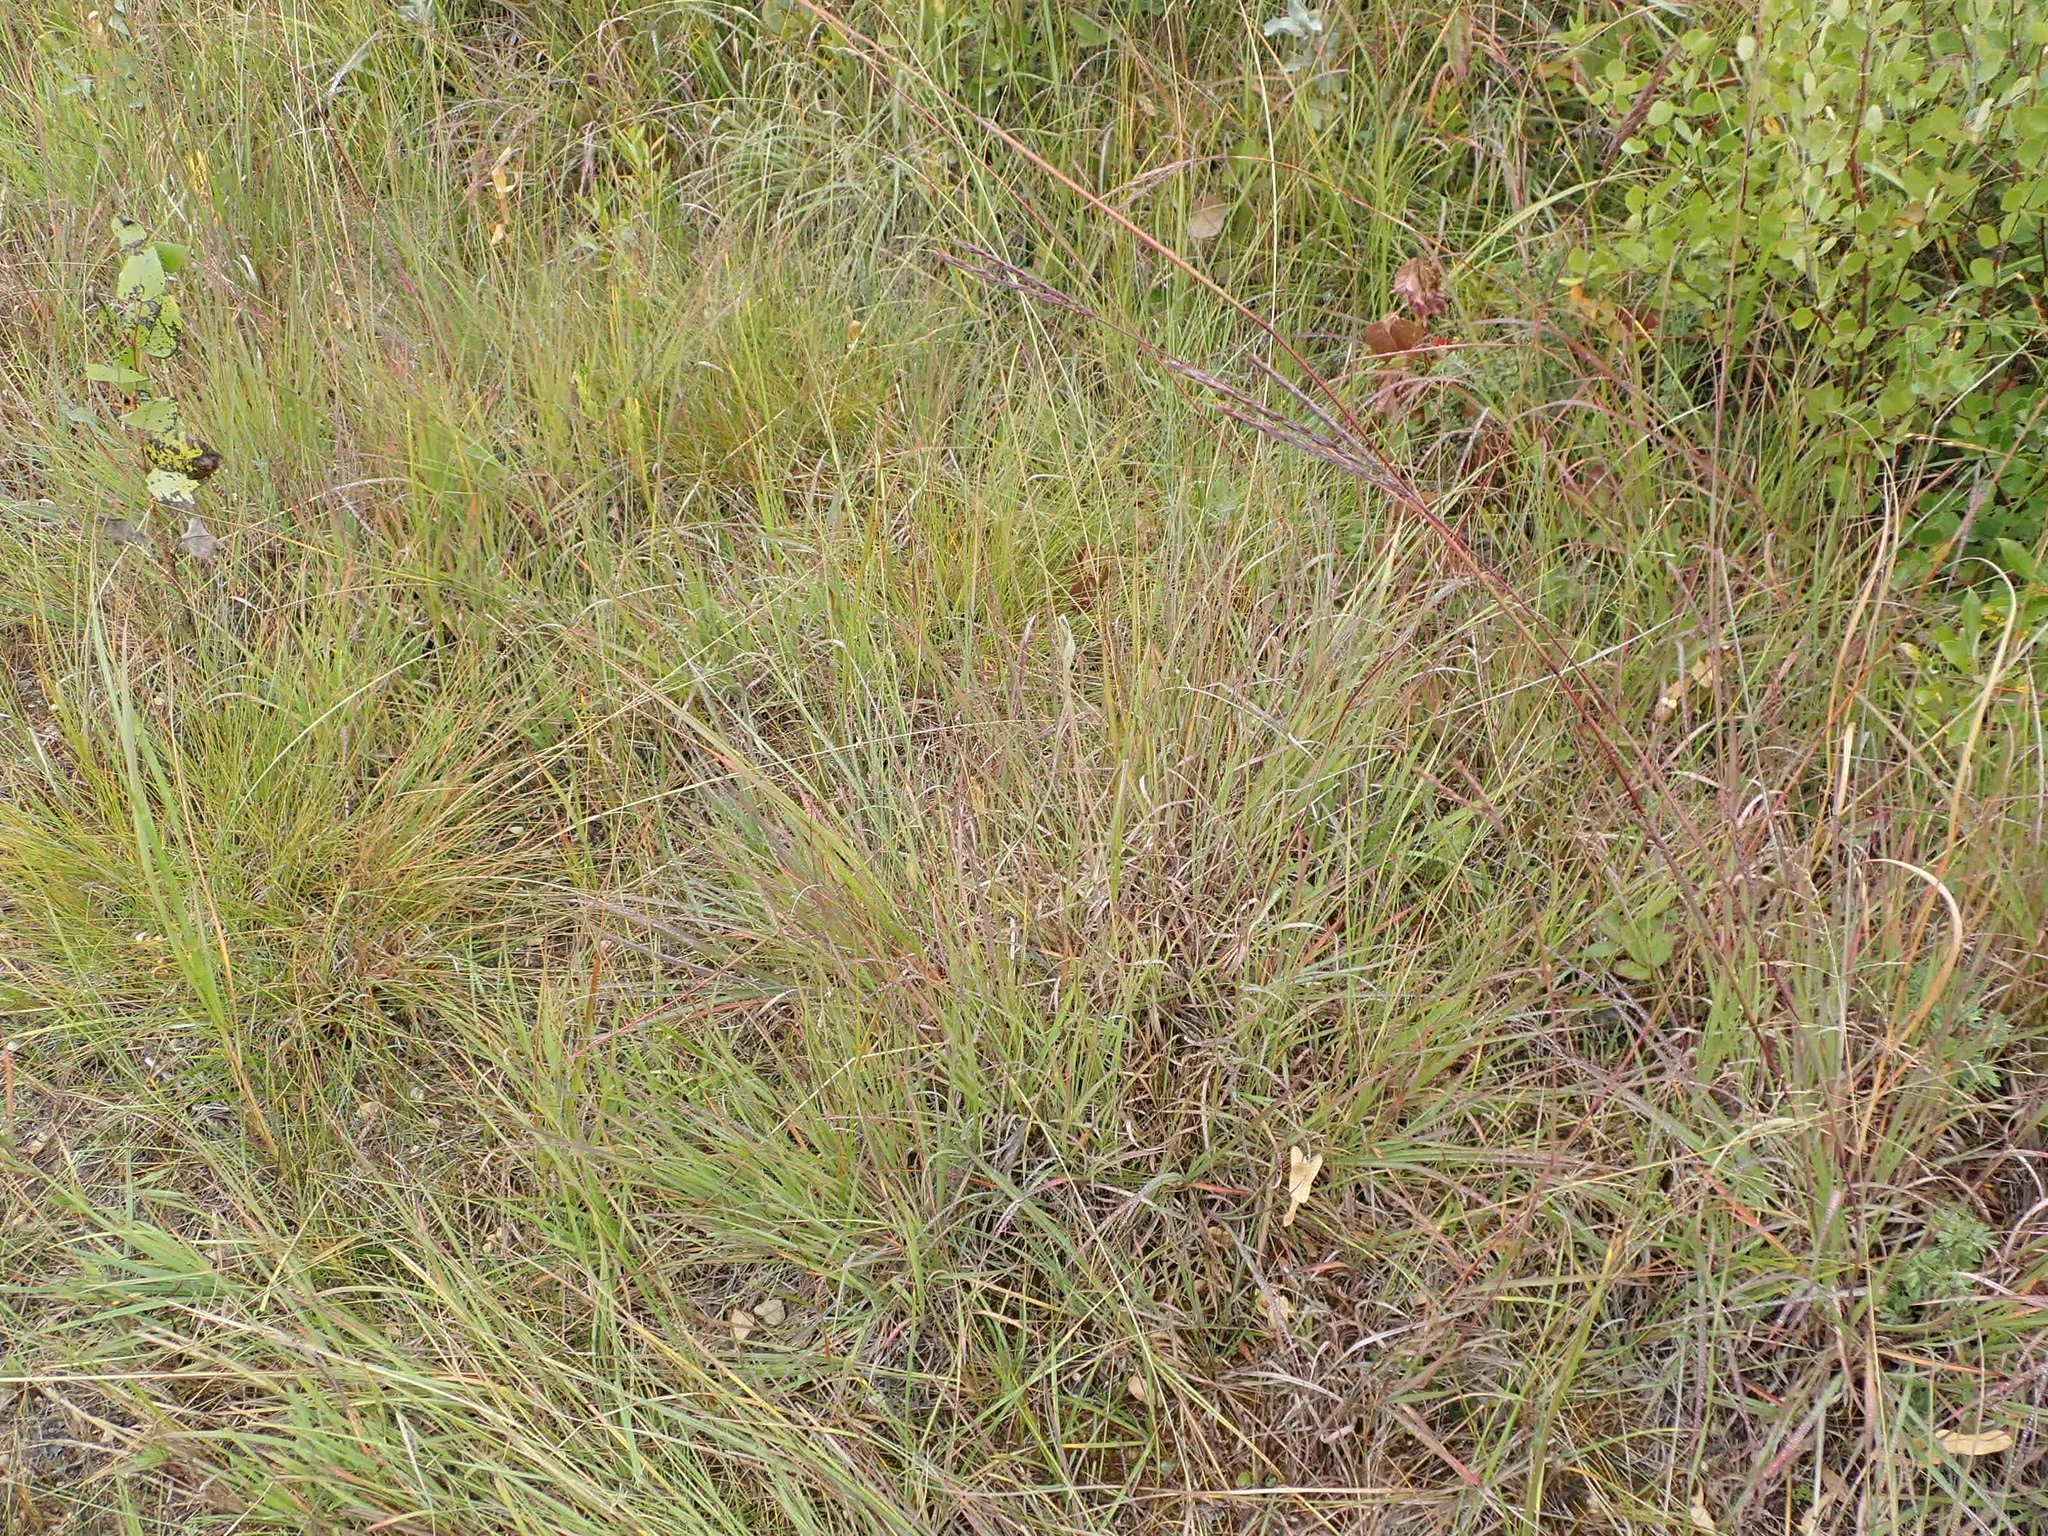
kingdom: Plantae
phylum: Tracheophyta
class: Liliopsida
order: Poales
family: Poaceae
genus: Andropogon
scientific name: Andropogon gerardi
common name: Big bluestem
